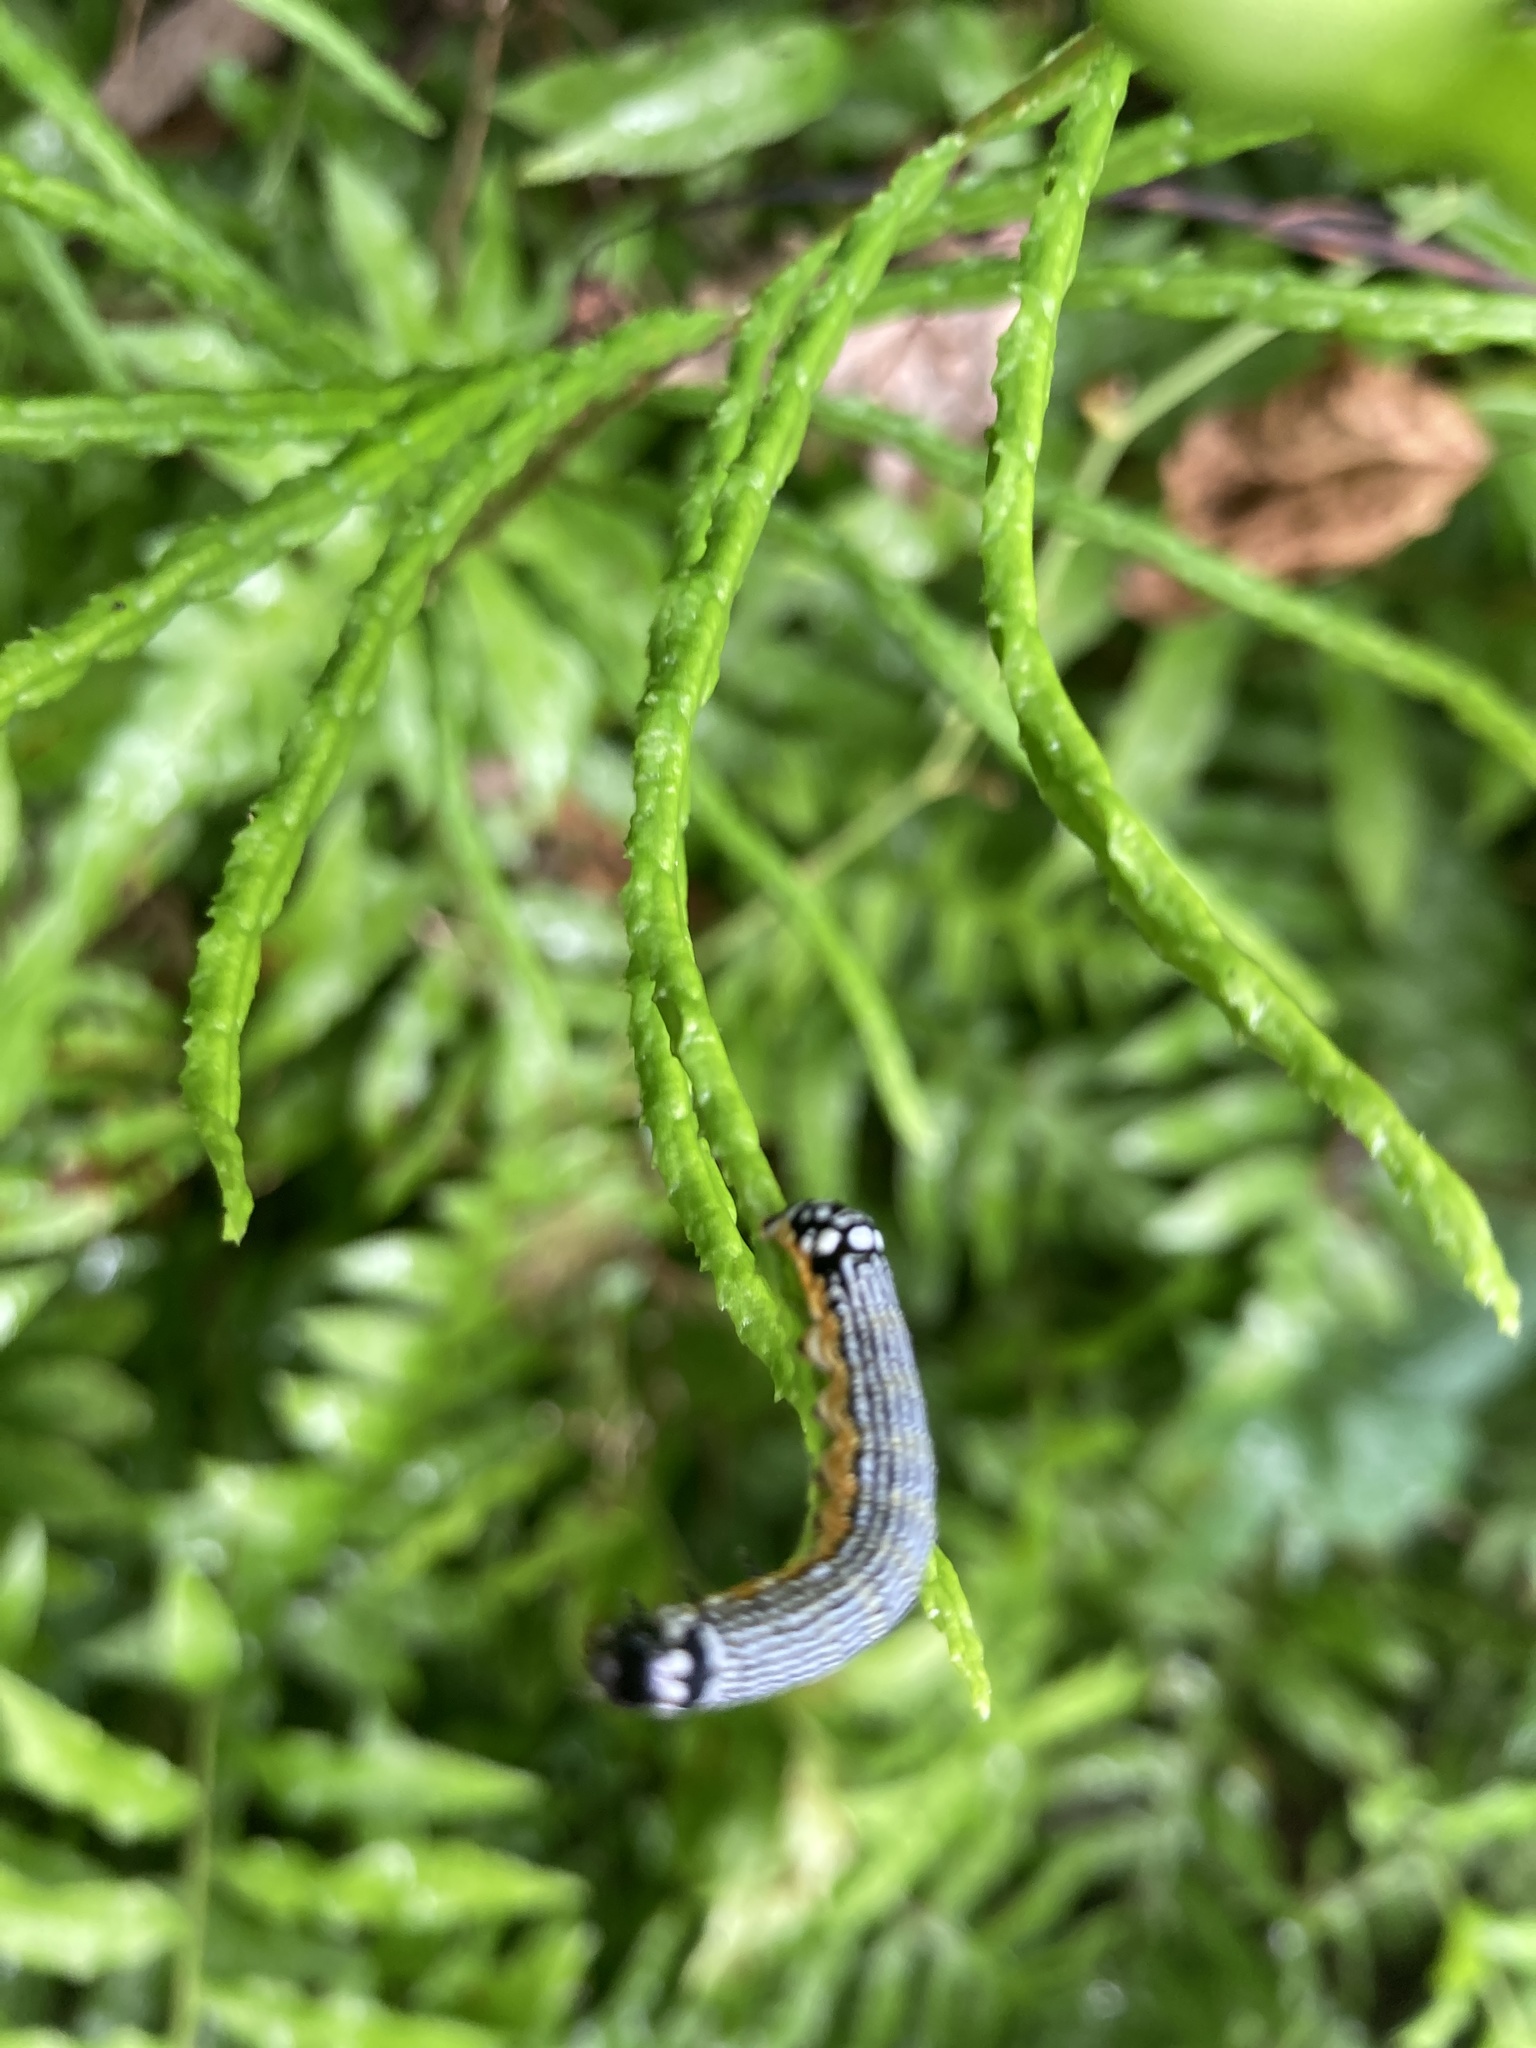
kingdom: Animalia
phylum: Arthropoda
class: Insecta
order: Lepidoptera
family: Noctuidae
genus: Phosphila
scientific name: Phosphila turbulenta
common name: Turbulent phosphila moth
